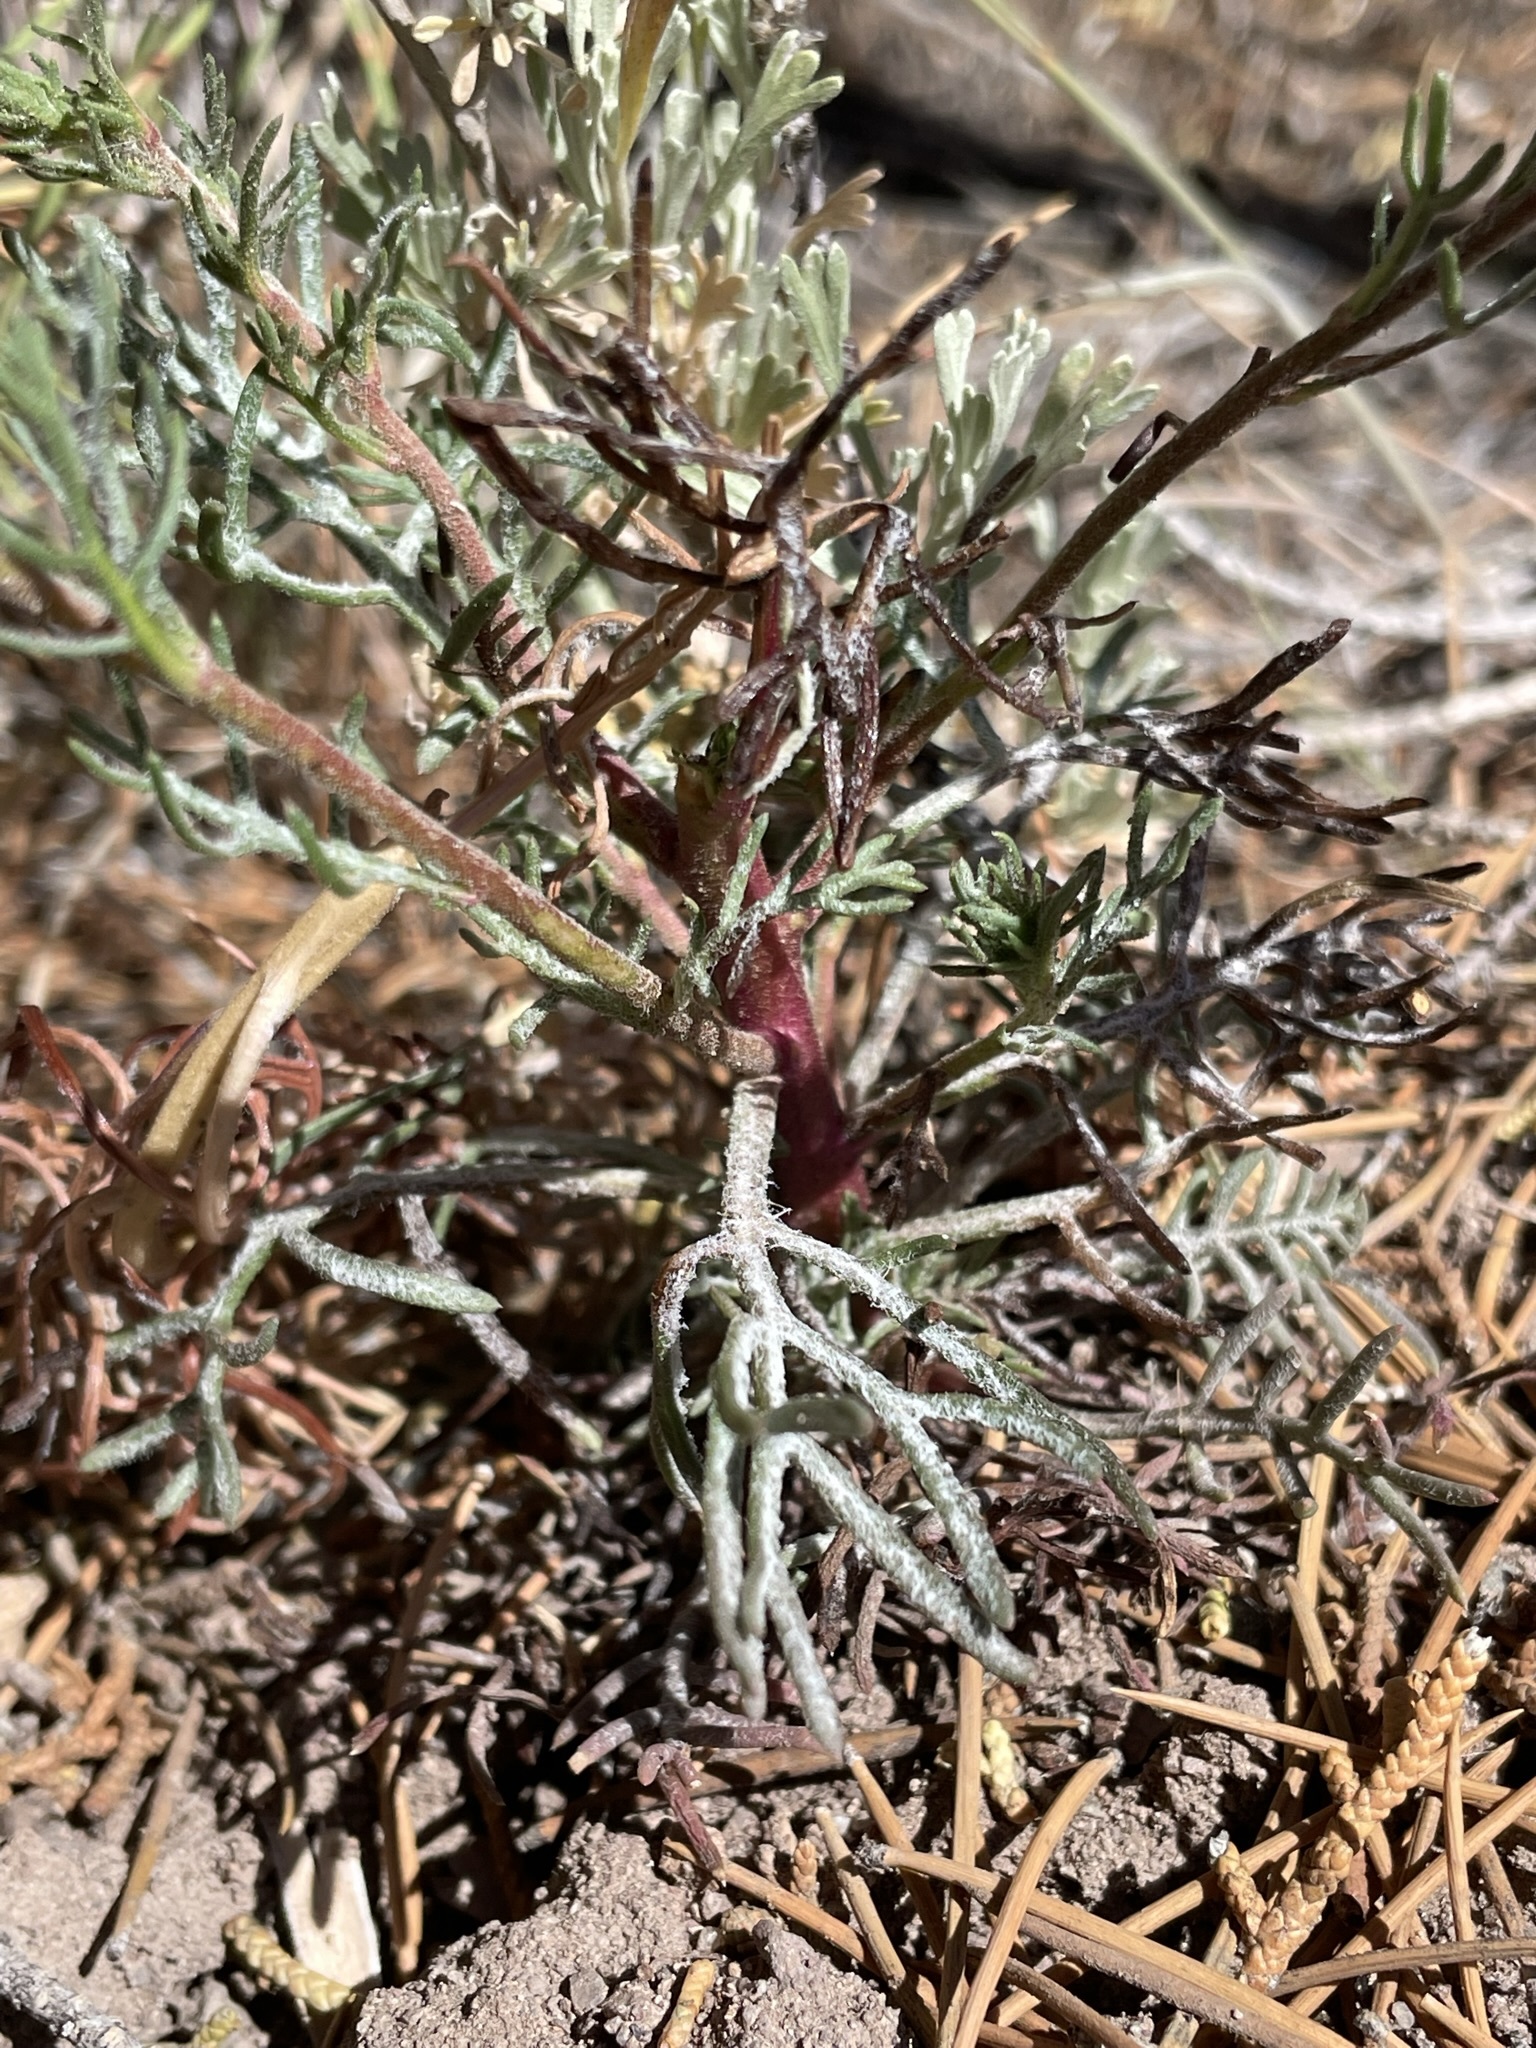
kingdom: Plantae
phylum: Tracheophyta
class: Magnoliopsida
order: Ericales
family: Polemoniaceae
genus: Ipomopsis
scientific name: Ipomopsis arizonica
